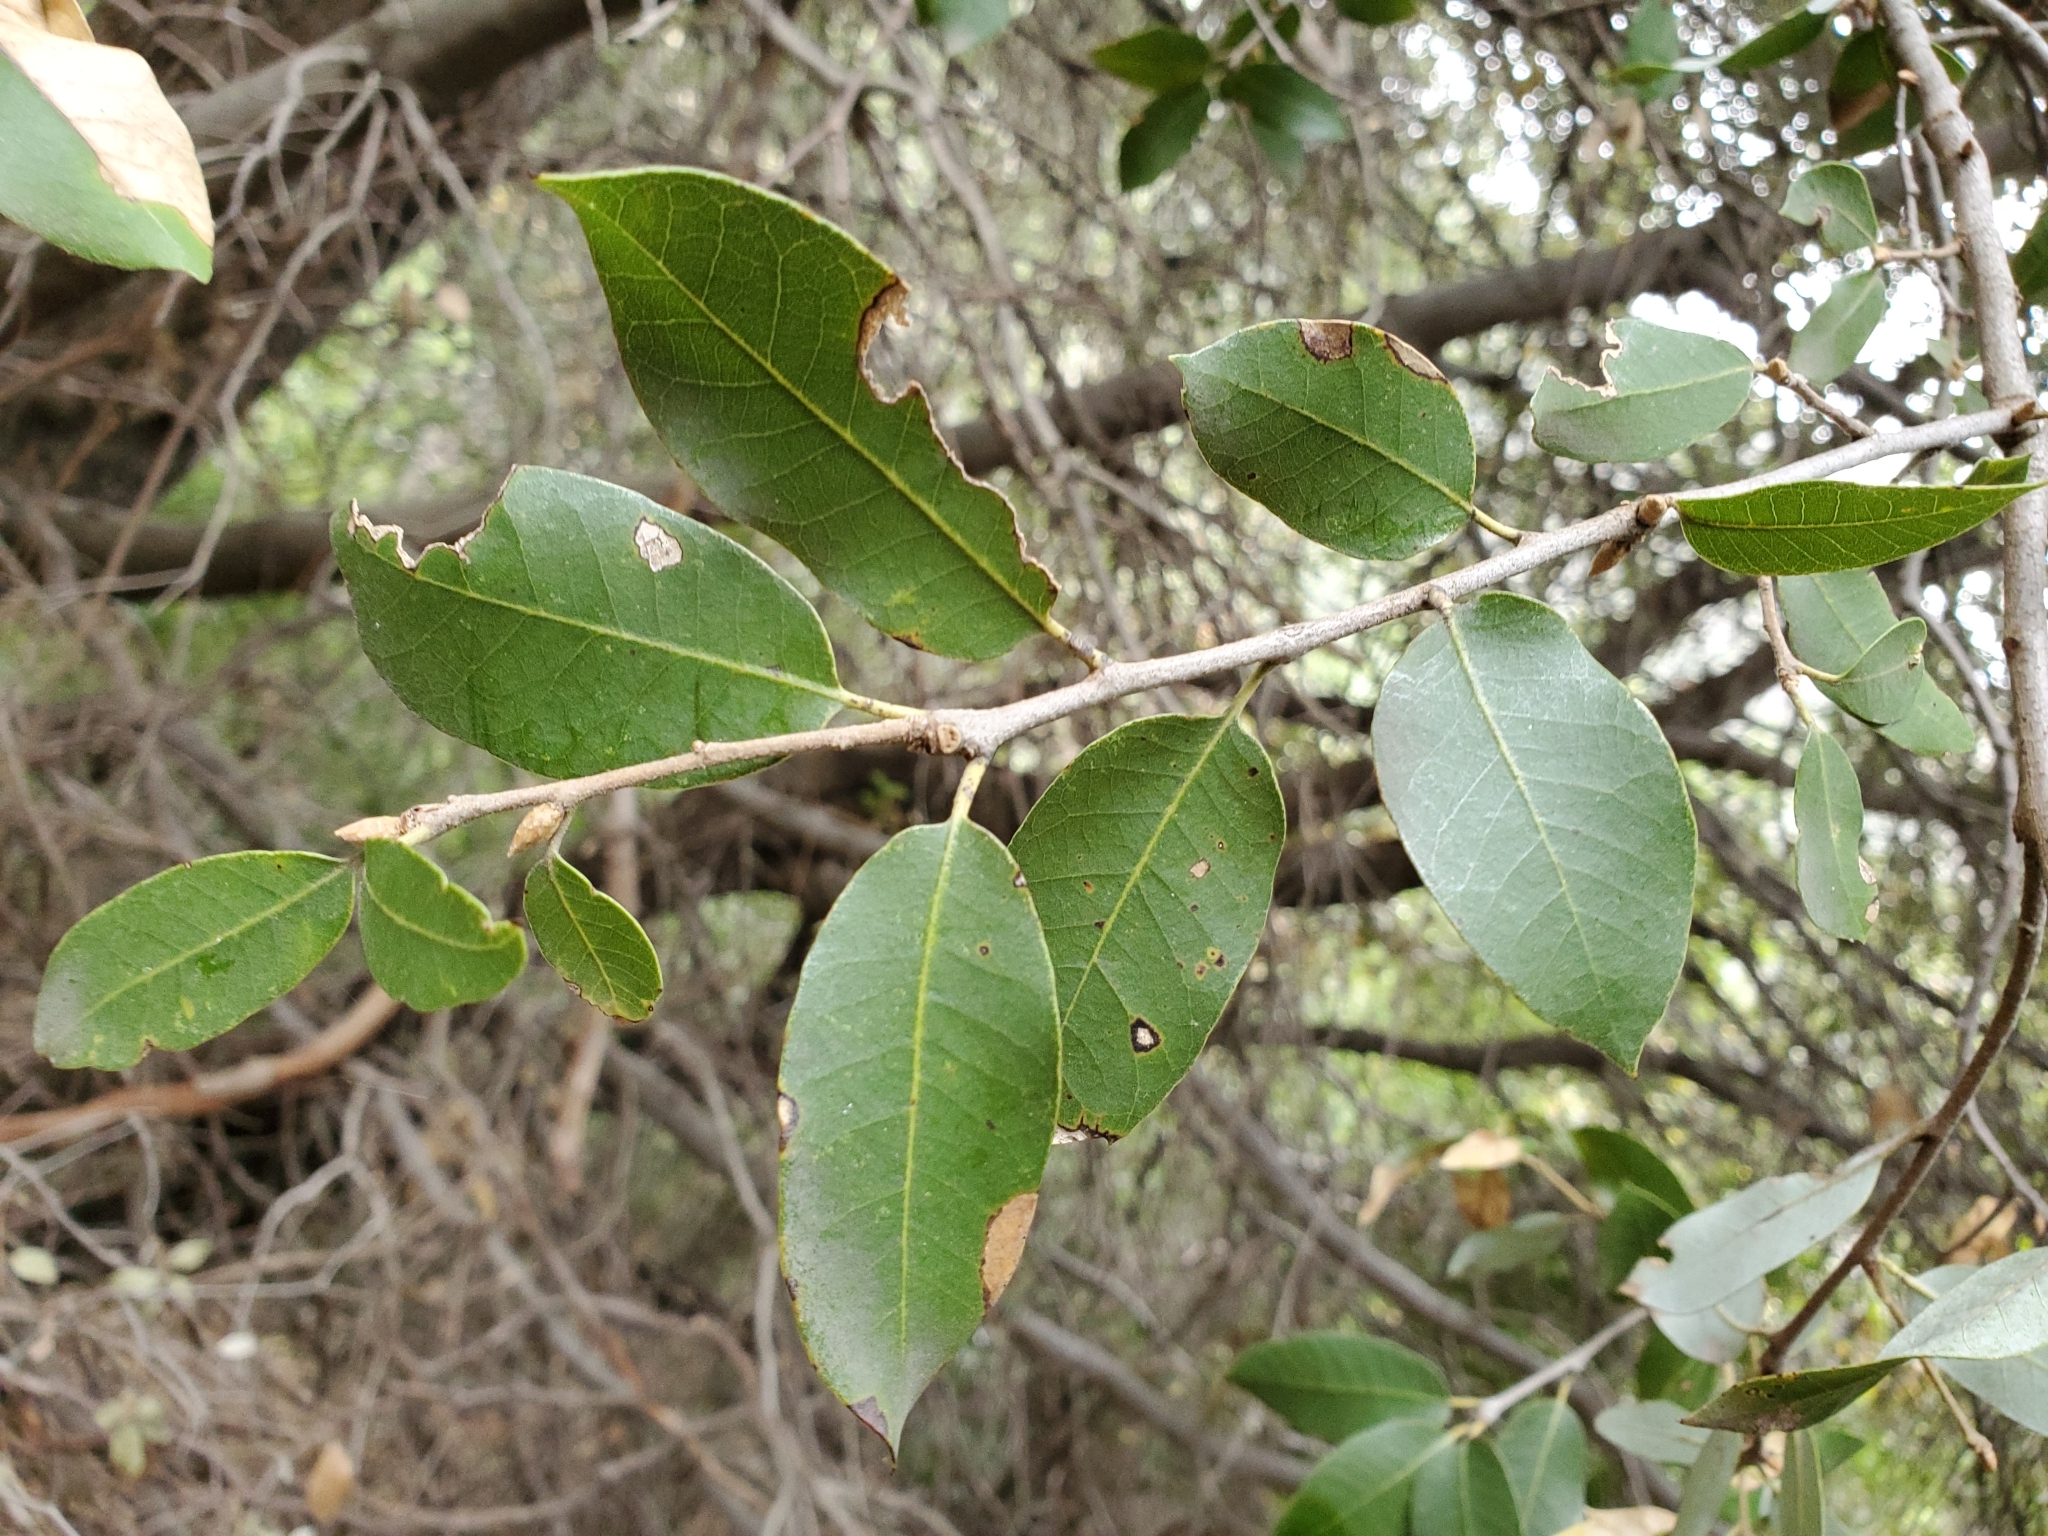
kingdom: Plantae
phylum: Tracheophyta
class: Magnoliopsida
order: Fagales
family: Fagaceae
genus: Quercus
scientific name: Quercus chrysolepis
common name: Canyon live oak
